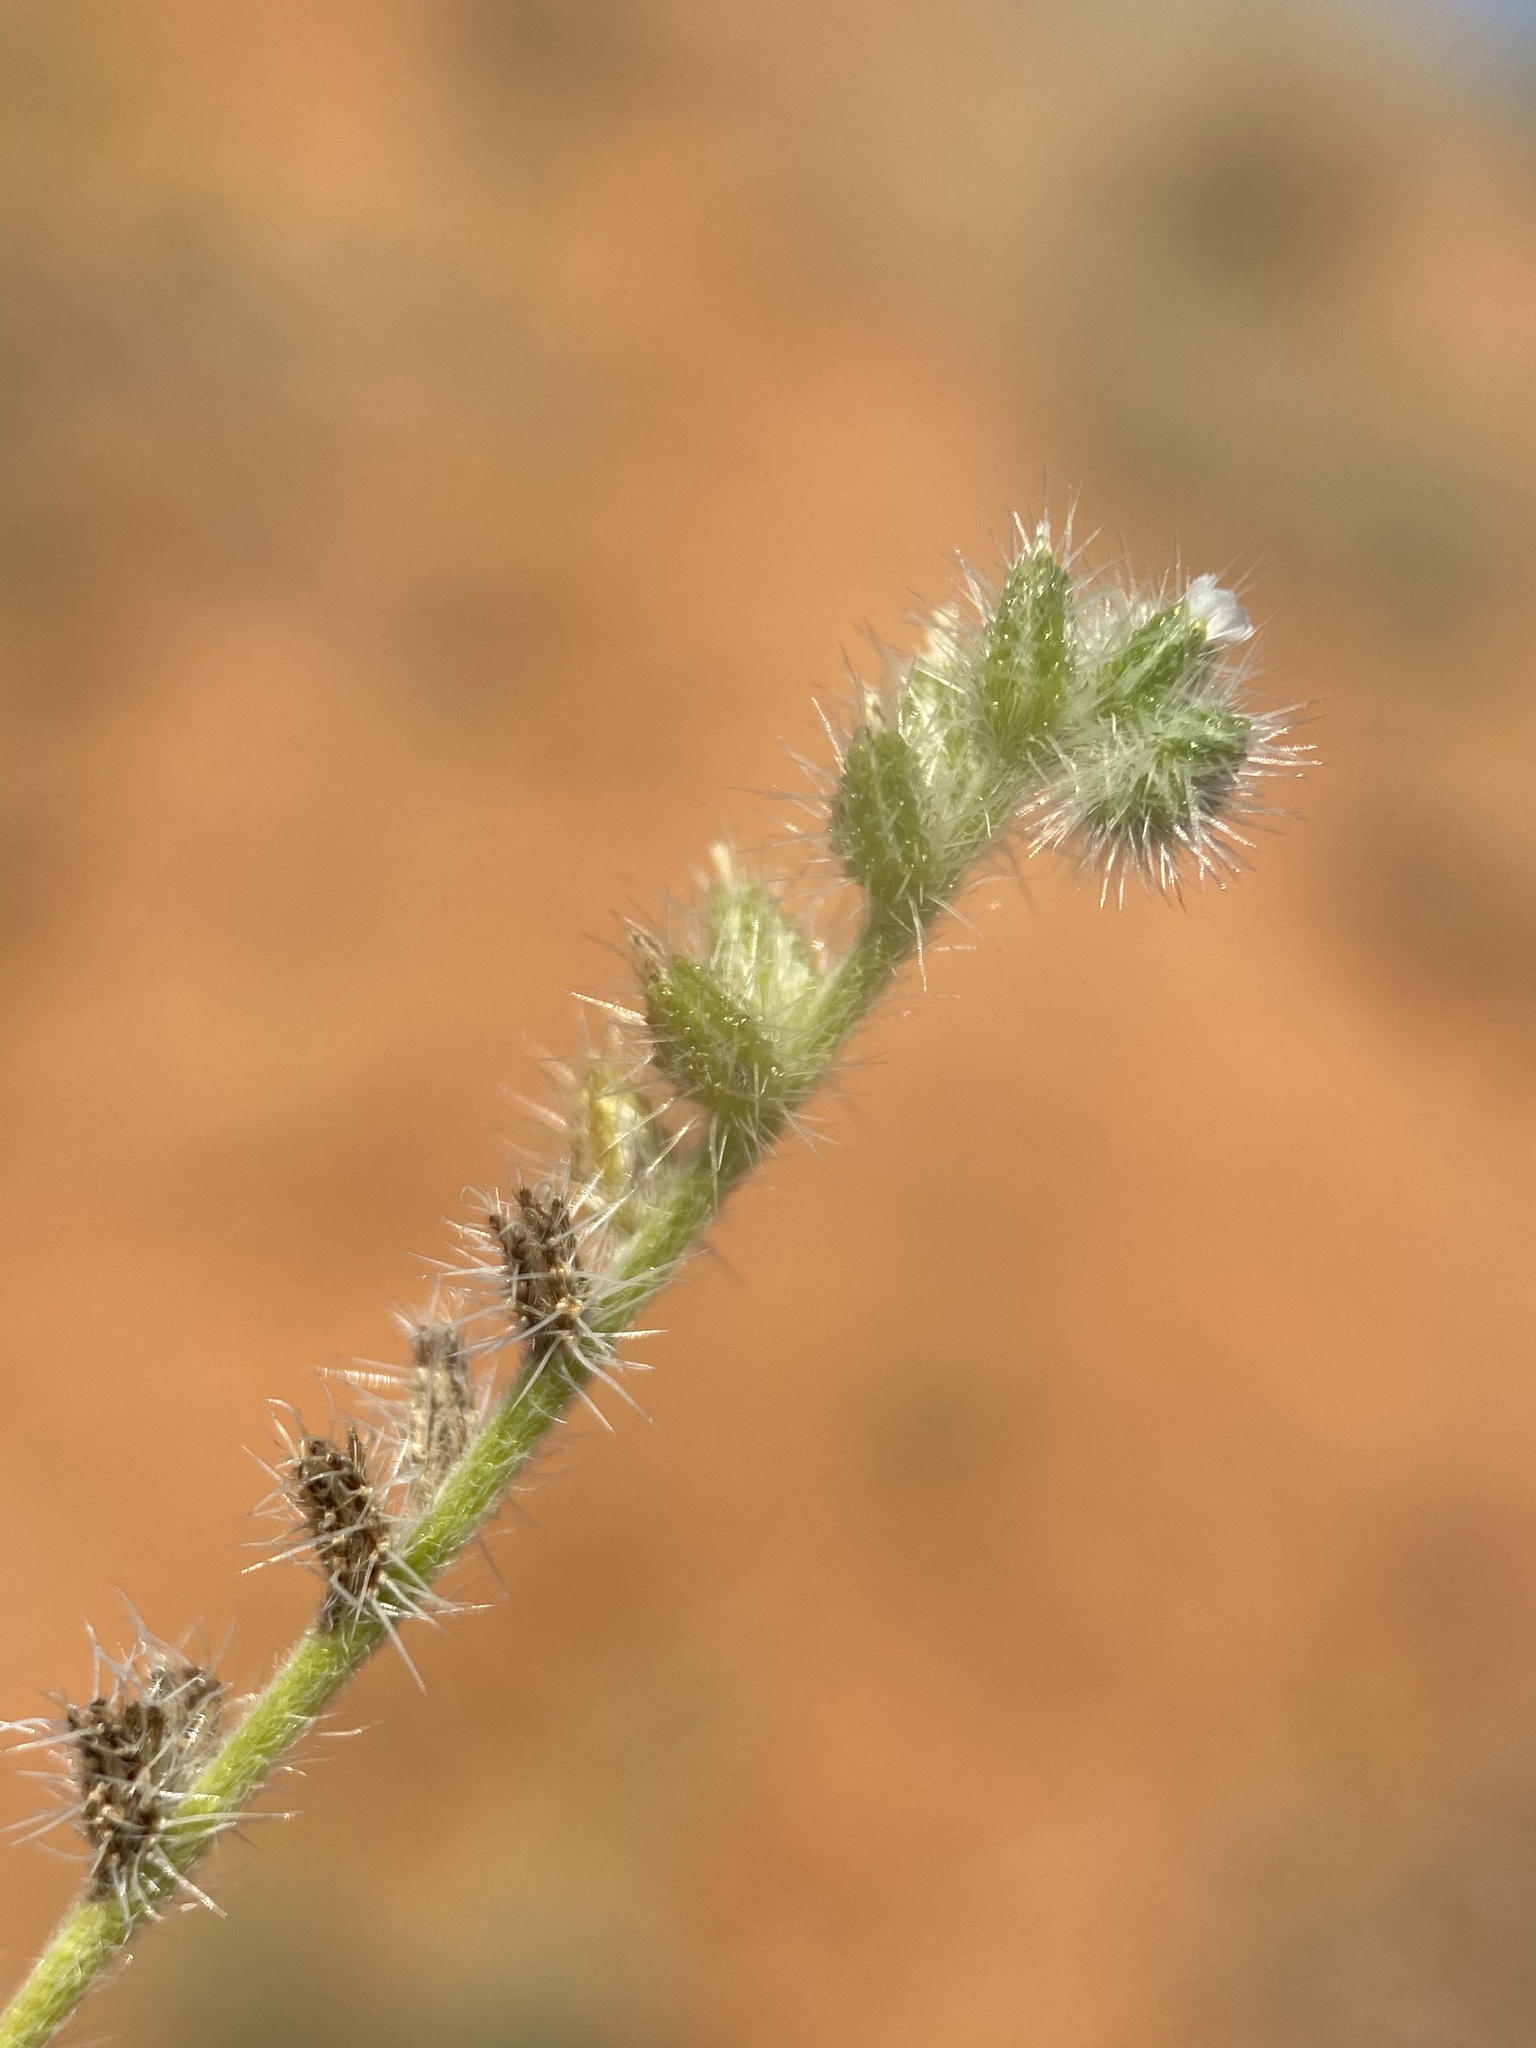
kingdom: Plantae
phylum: Tracheophyta
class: Magnoliopsida
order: Boraginales
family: Boraginaceae
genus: Cryptantha
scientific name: Cryptantha fendleri
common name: Sand-dune cryptantha
